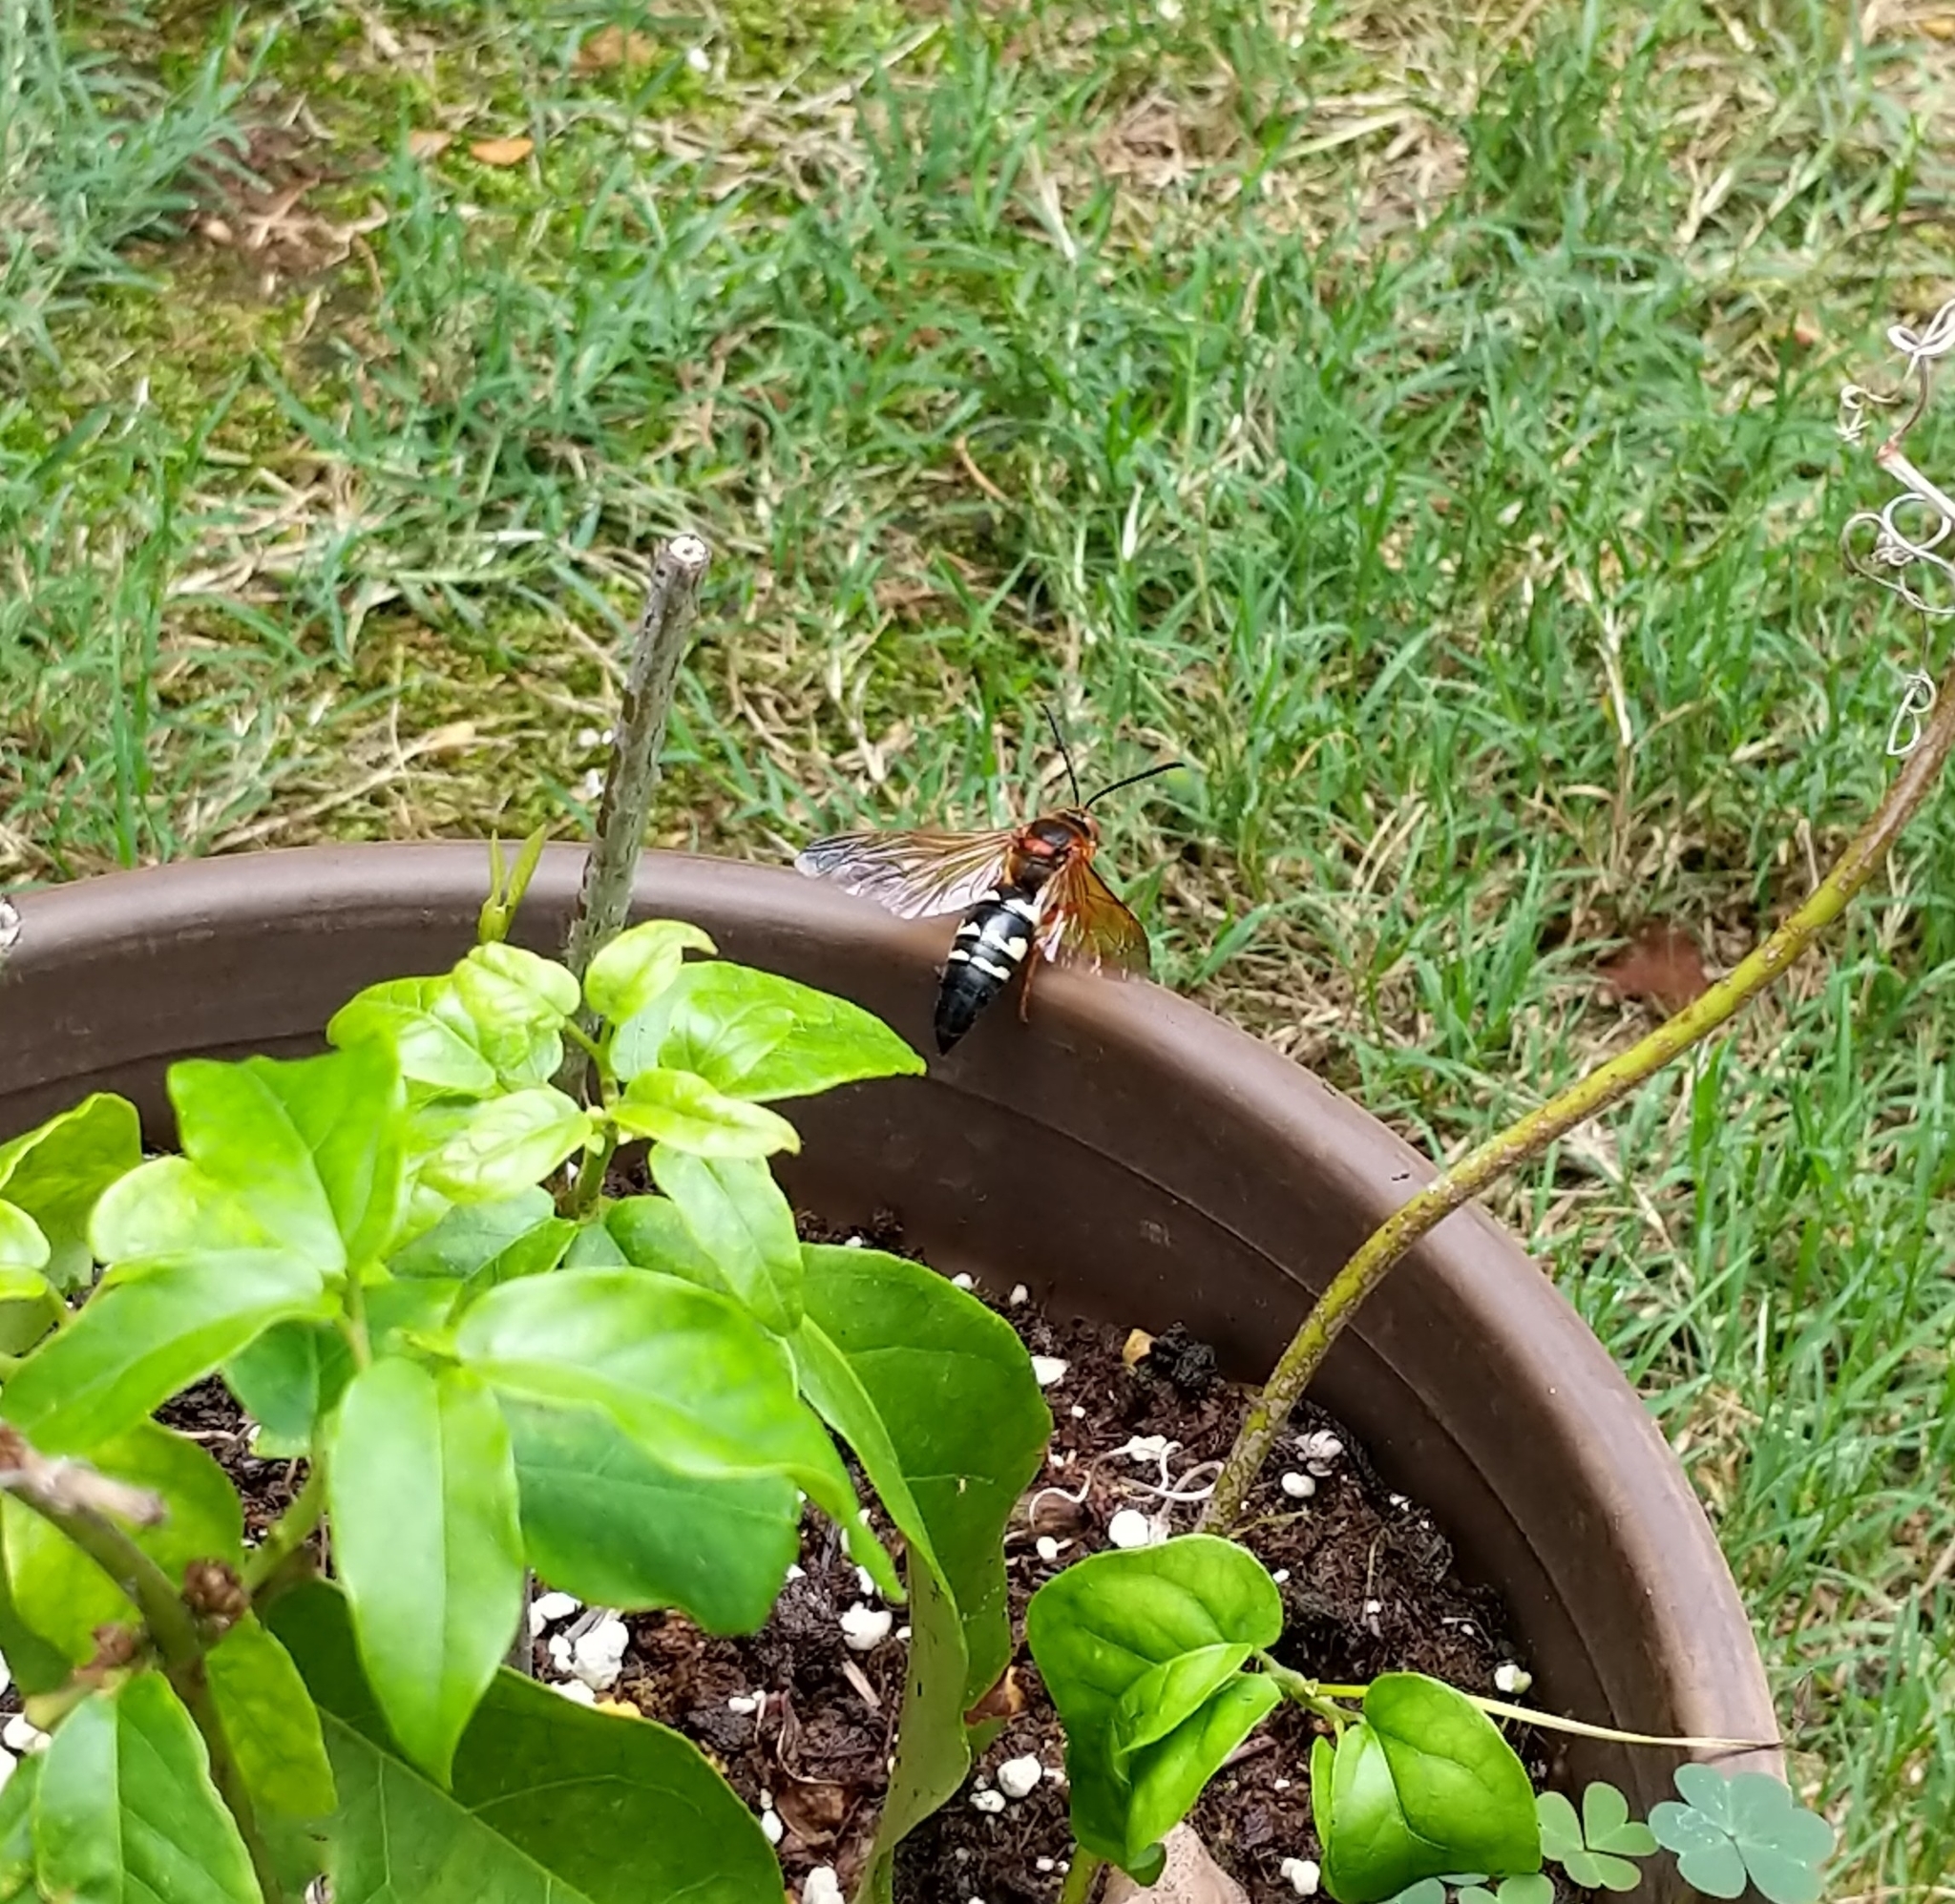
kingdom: Animalia
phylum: Arthropoda
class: Insecta
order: Hymenoptera
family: Crabronidae
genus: Sphecius
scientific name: Sphecius speciosus
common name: Cicada killer
